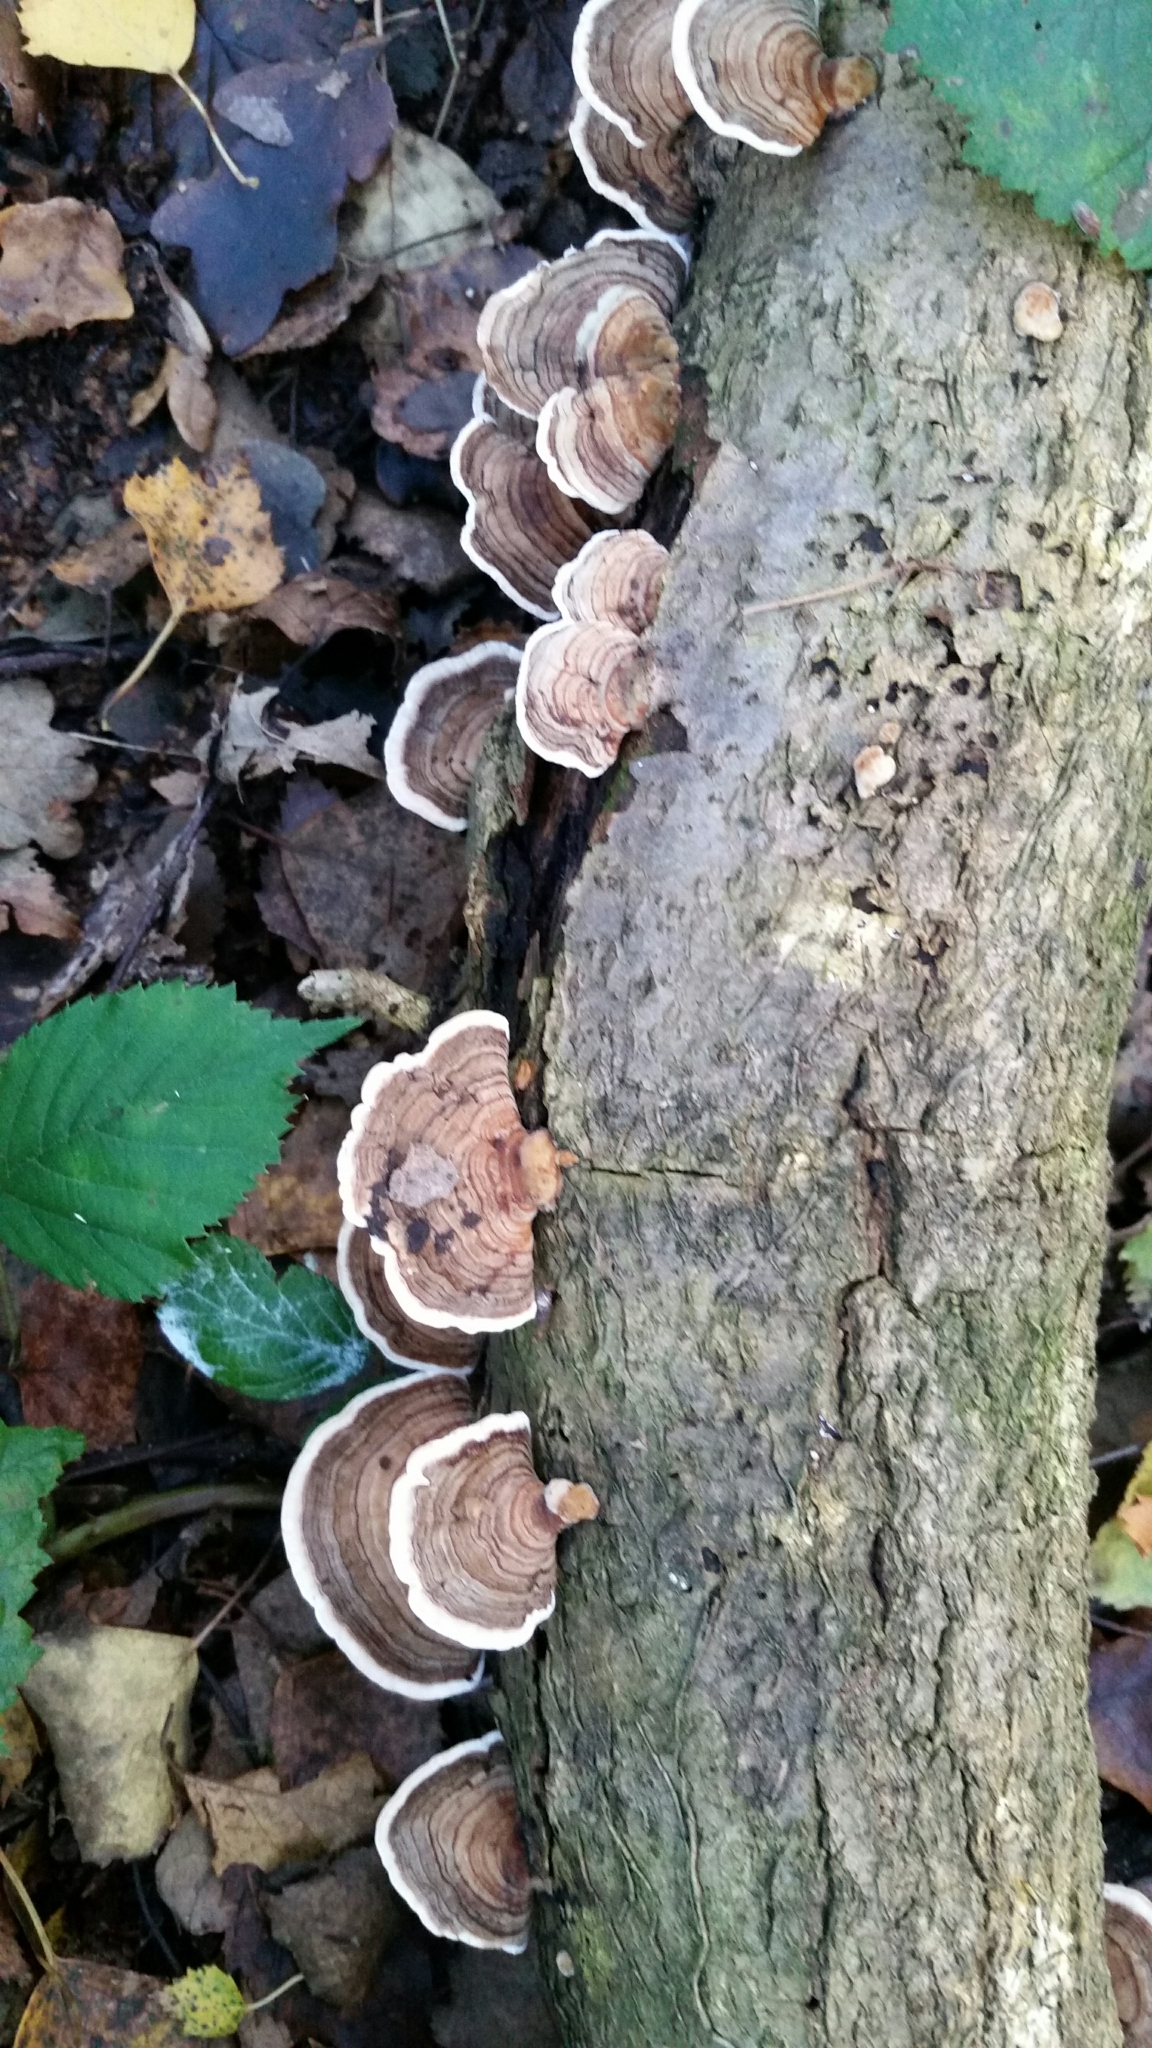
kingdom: Fungi
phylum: Basidiomycota
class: Agaricomycetes
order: Polyporales
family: Polyporaceae
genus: Trametes
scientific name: Trametes versicolor
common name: Turkeytail
